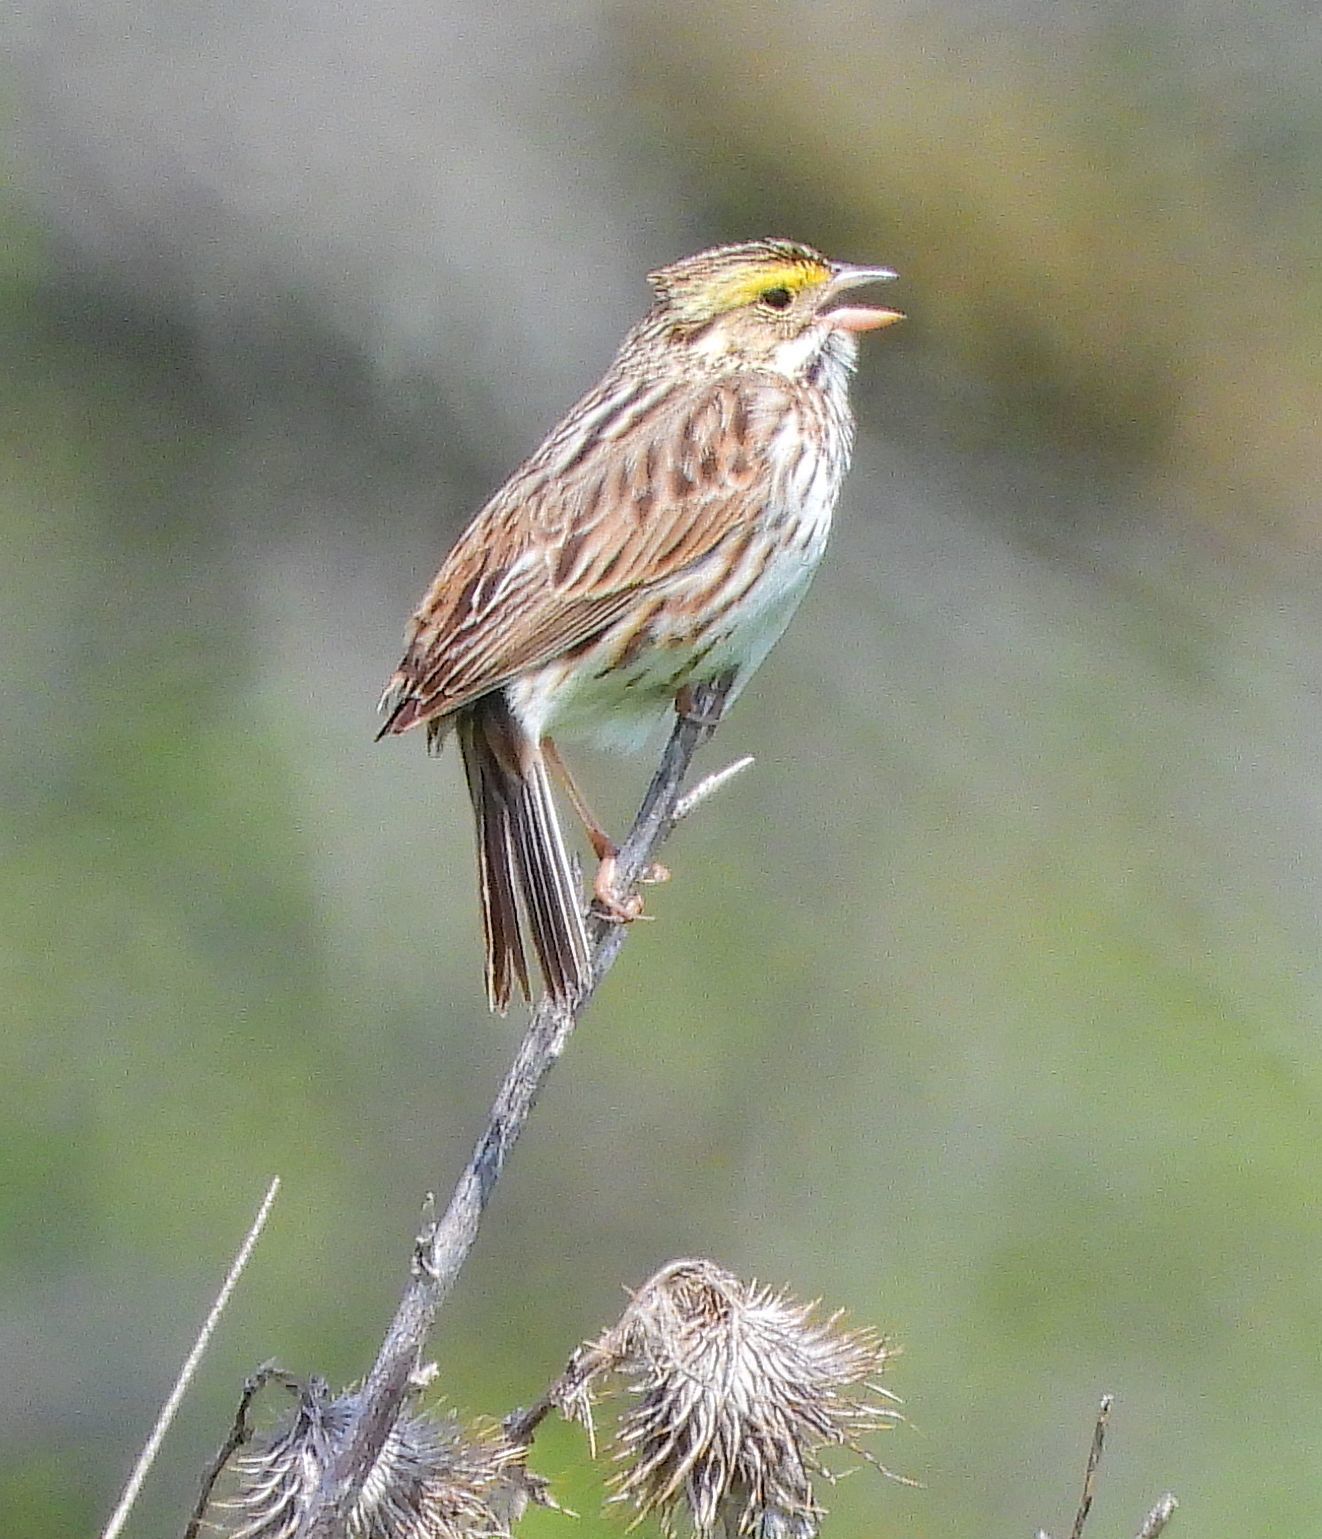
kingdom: Animalia
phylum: Chordata
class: Aves
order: Passeriformes
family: Passerellidae
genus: Passerculus
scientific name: Passerculus sandwichensis
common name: Savannah sparrow
